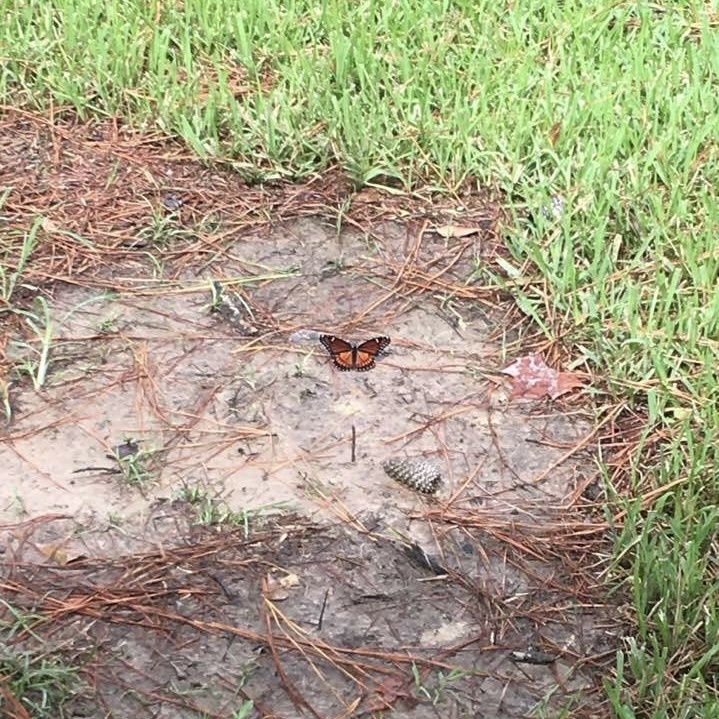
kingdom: Animalia
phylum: Arthropoda
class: Insecta
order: Lepidoptera
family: Nymphalidae
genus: Limenitis
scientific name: Limenitis archippus
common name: Viceroy
